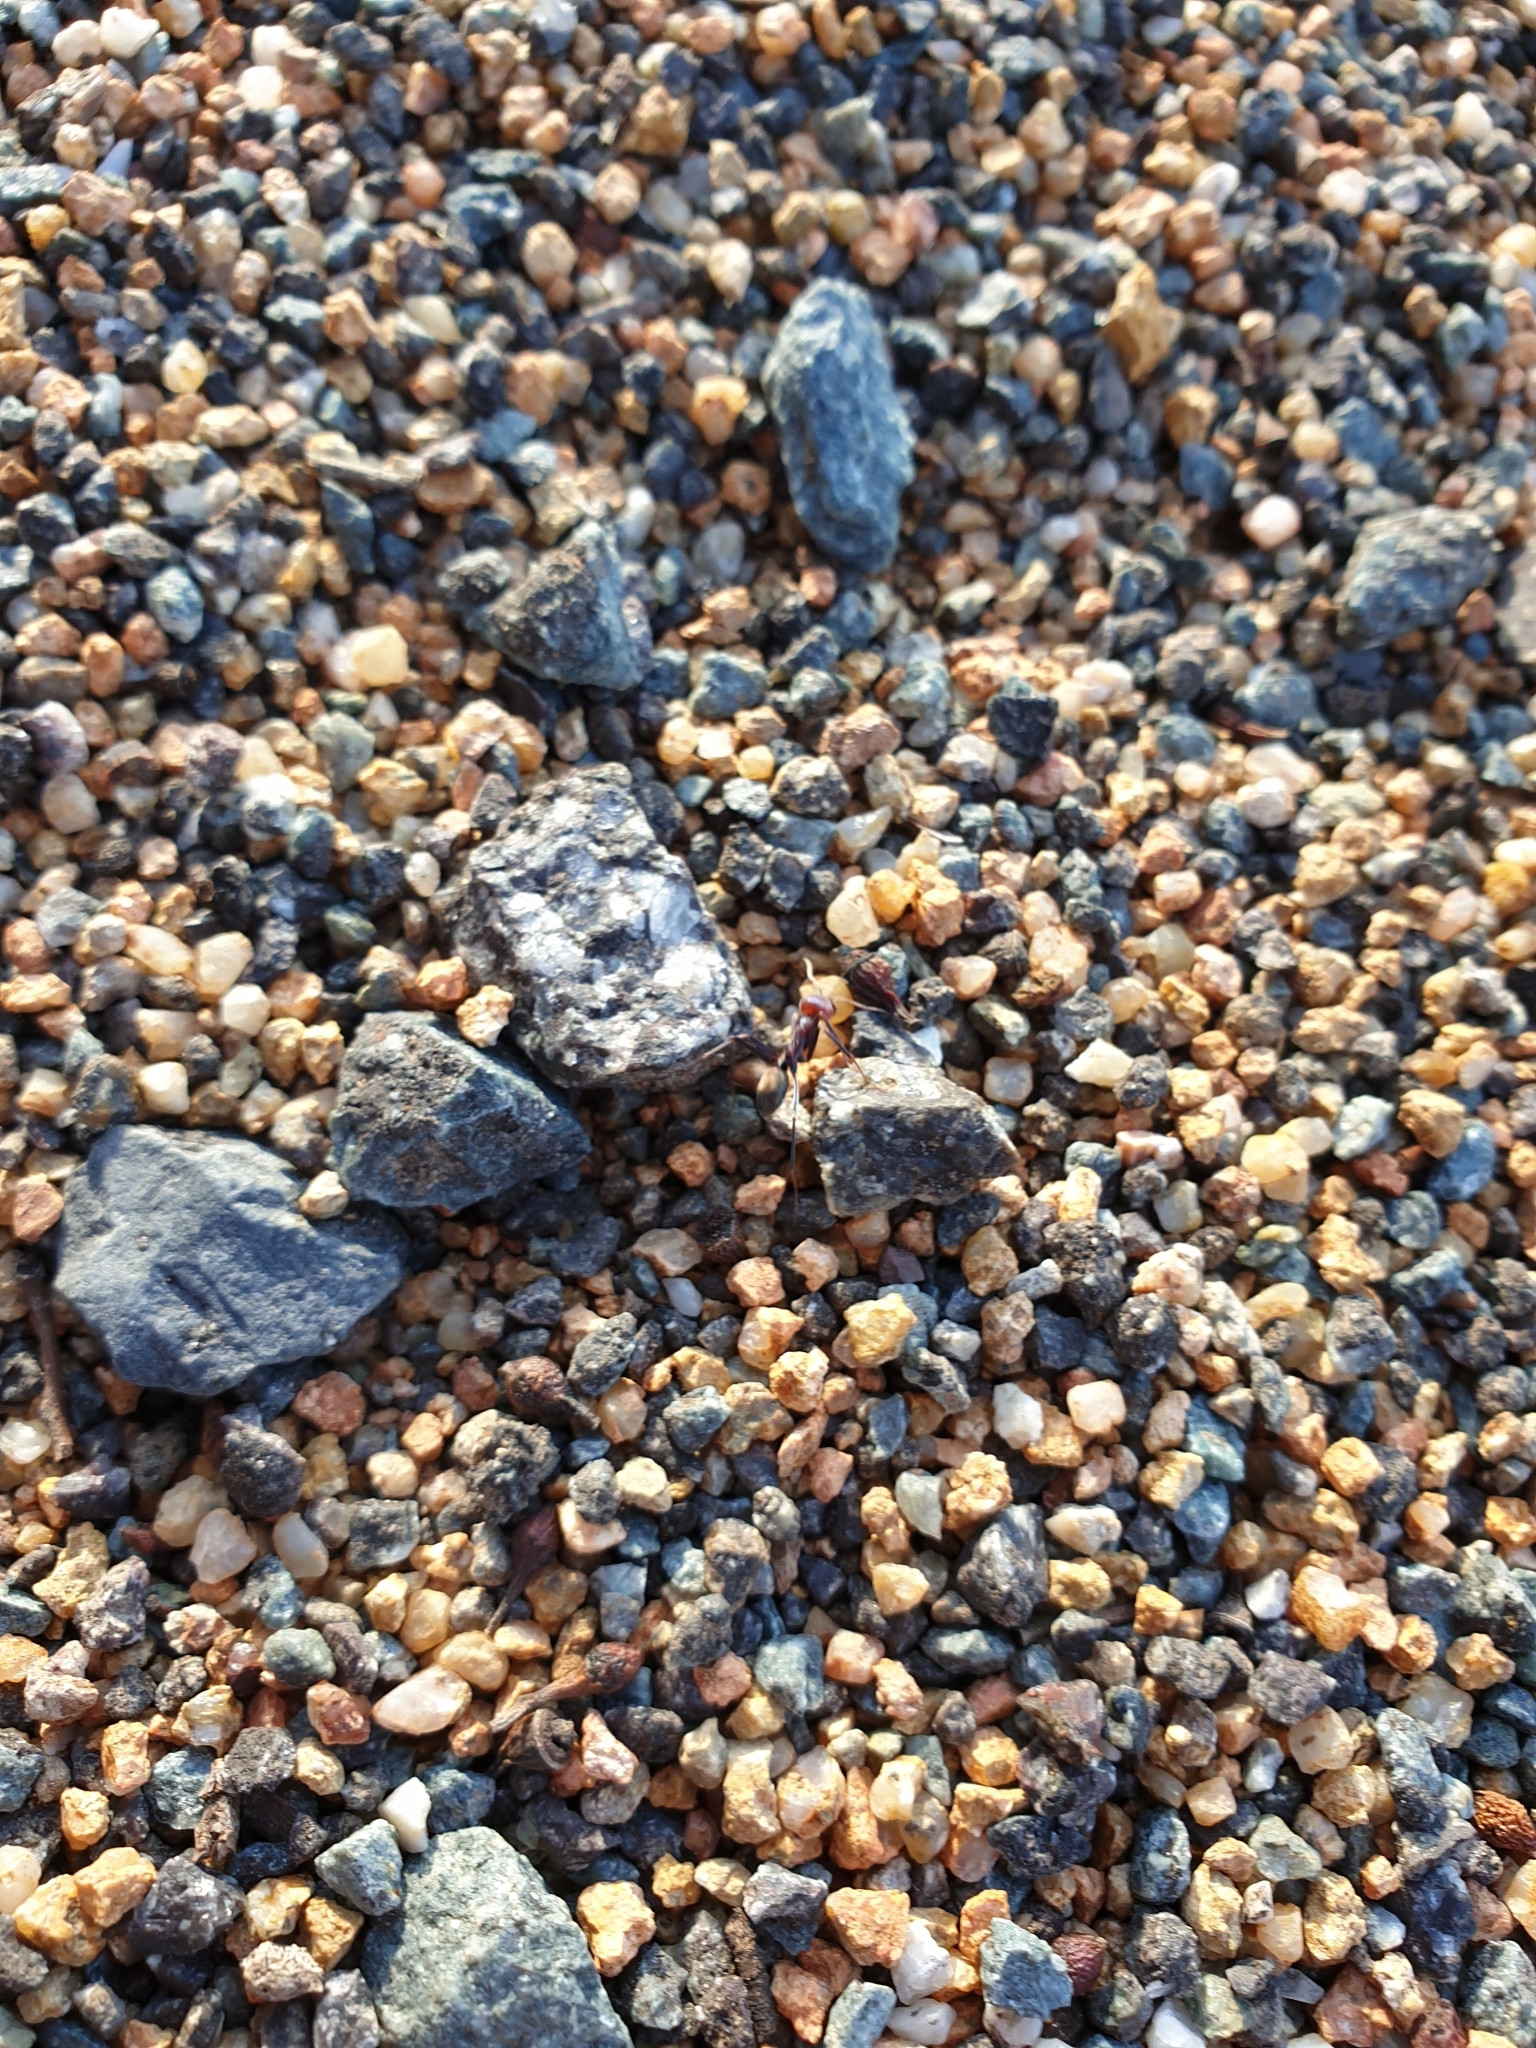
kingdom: Animalia
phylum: Arthropoda
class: Insecta
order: Hymenoptera
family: Formicidae
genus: Iridomyrmex
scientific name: Iridomyrmex purpureus
